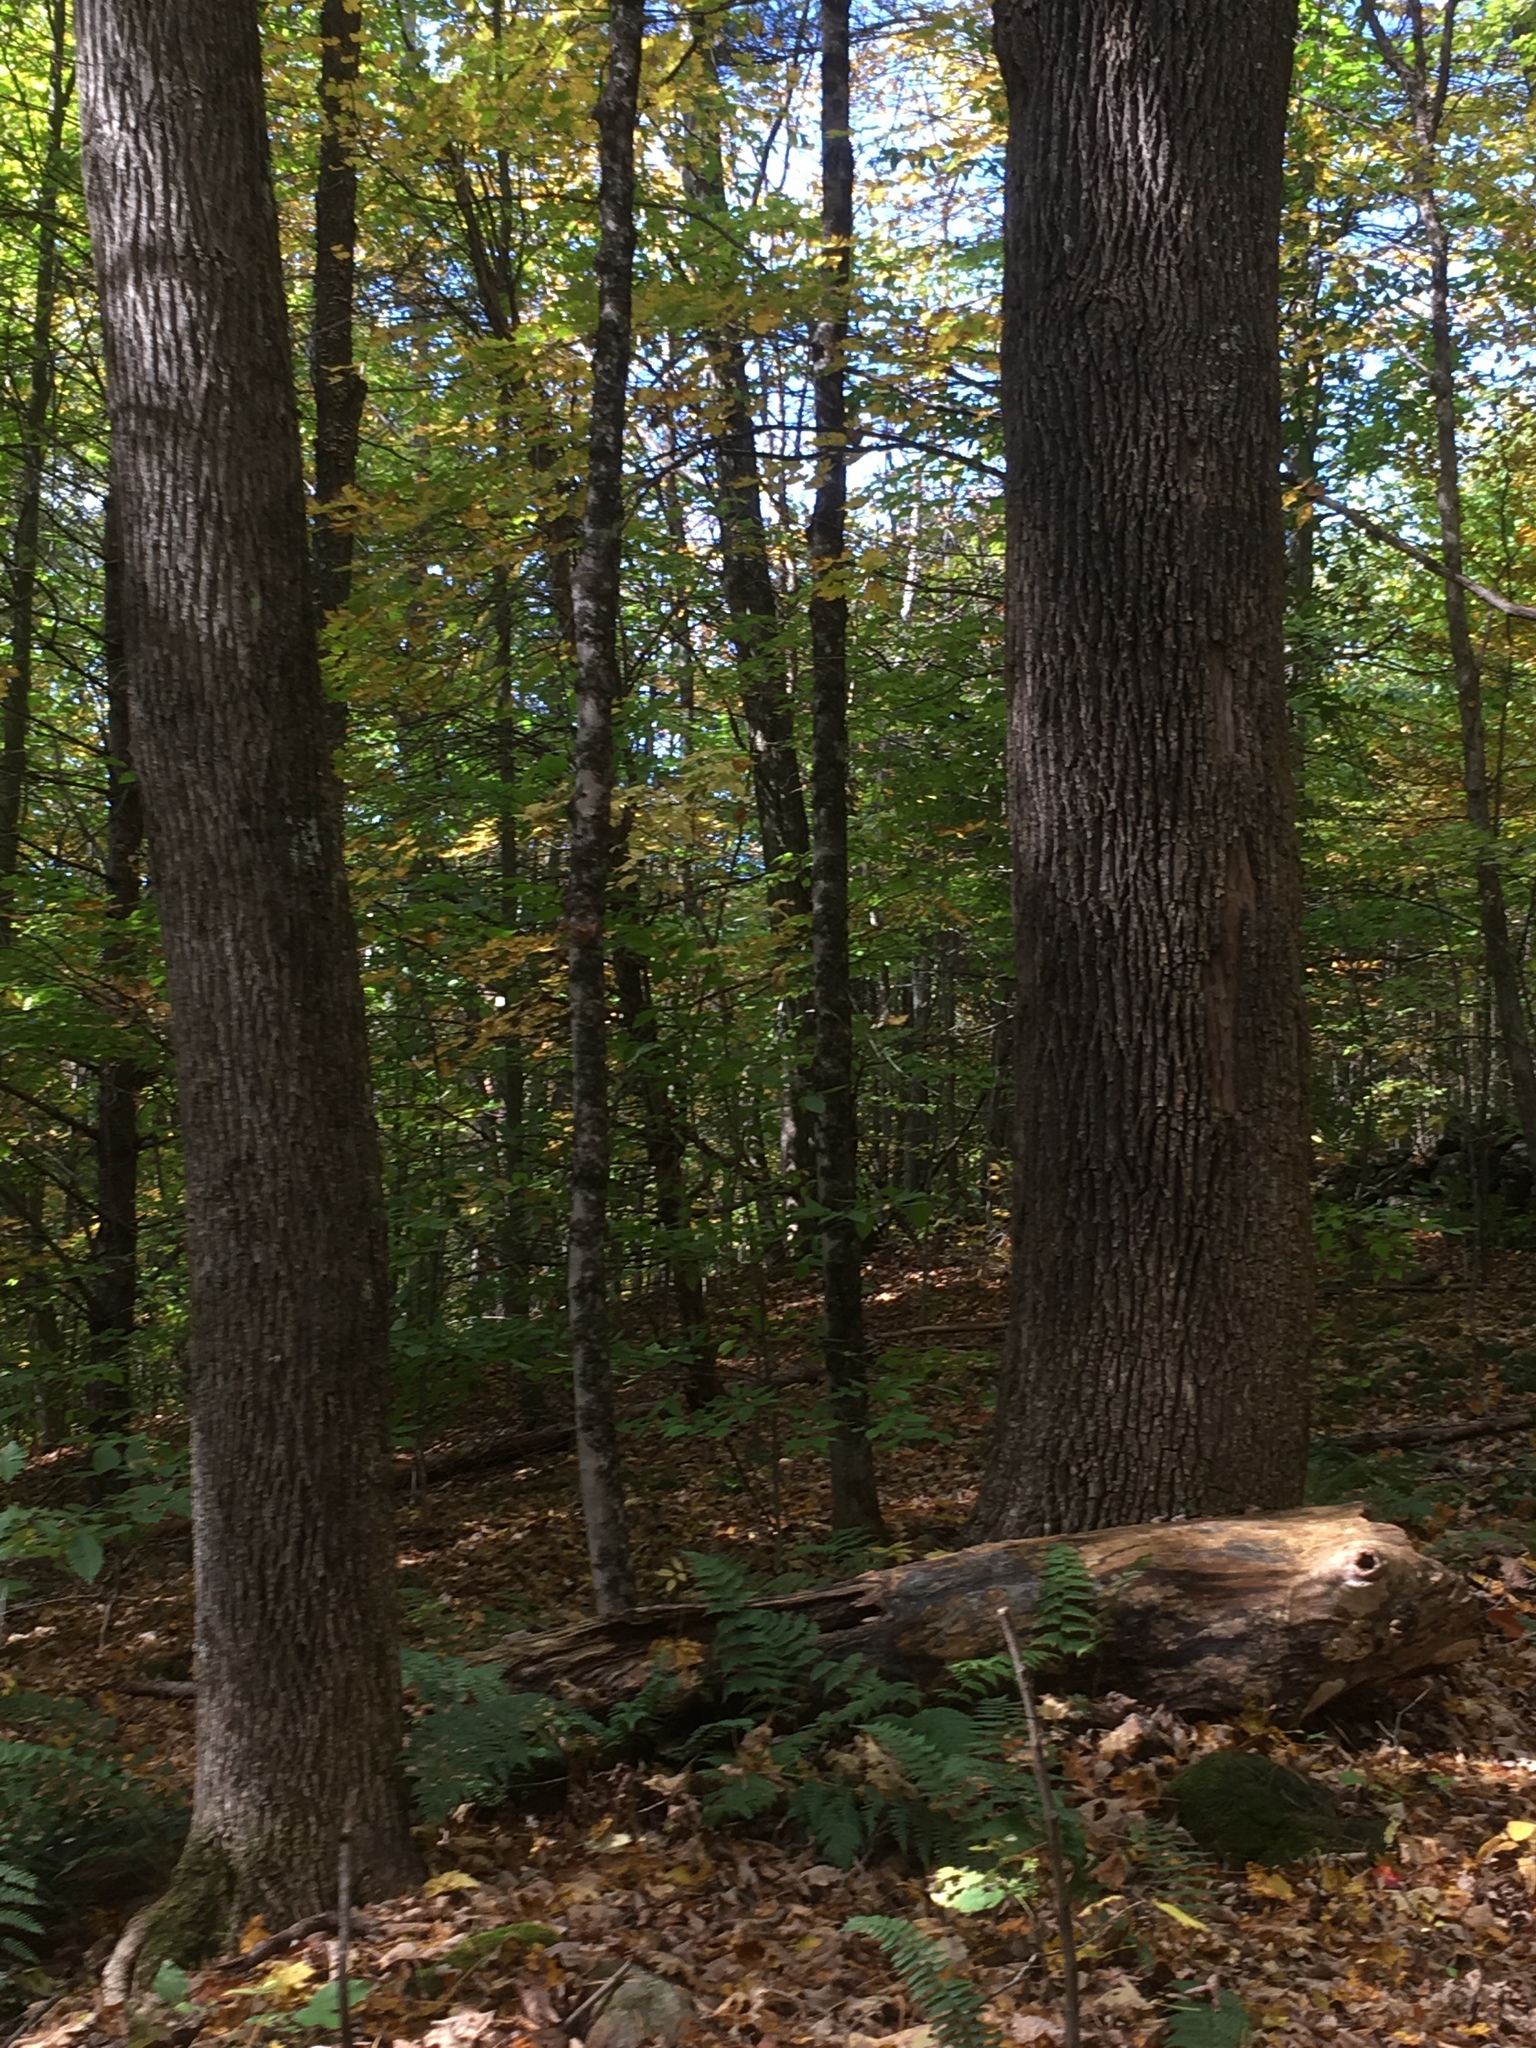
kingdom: Plantae
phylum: Tracheophyta
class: Magnoliopsida
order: Lamiales
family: Oleaceae
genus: Fraxinus
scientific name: Fraxinus americana
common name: White ash
